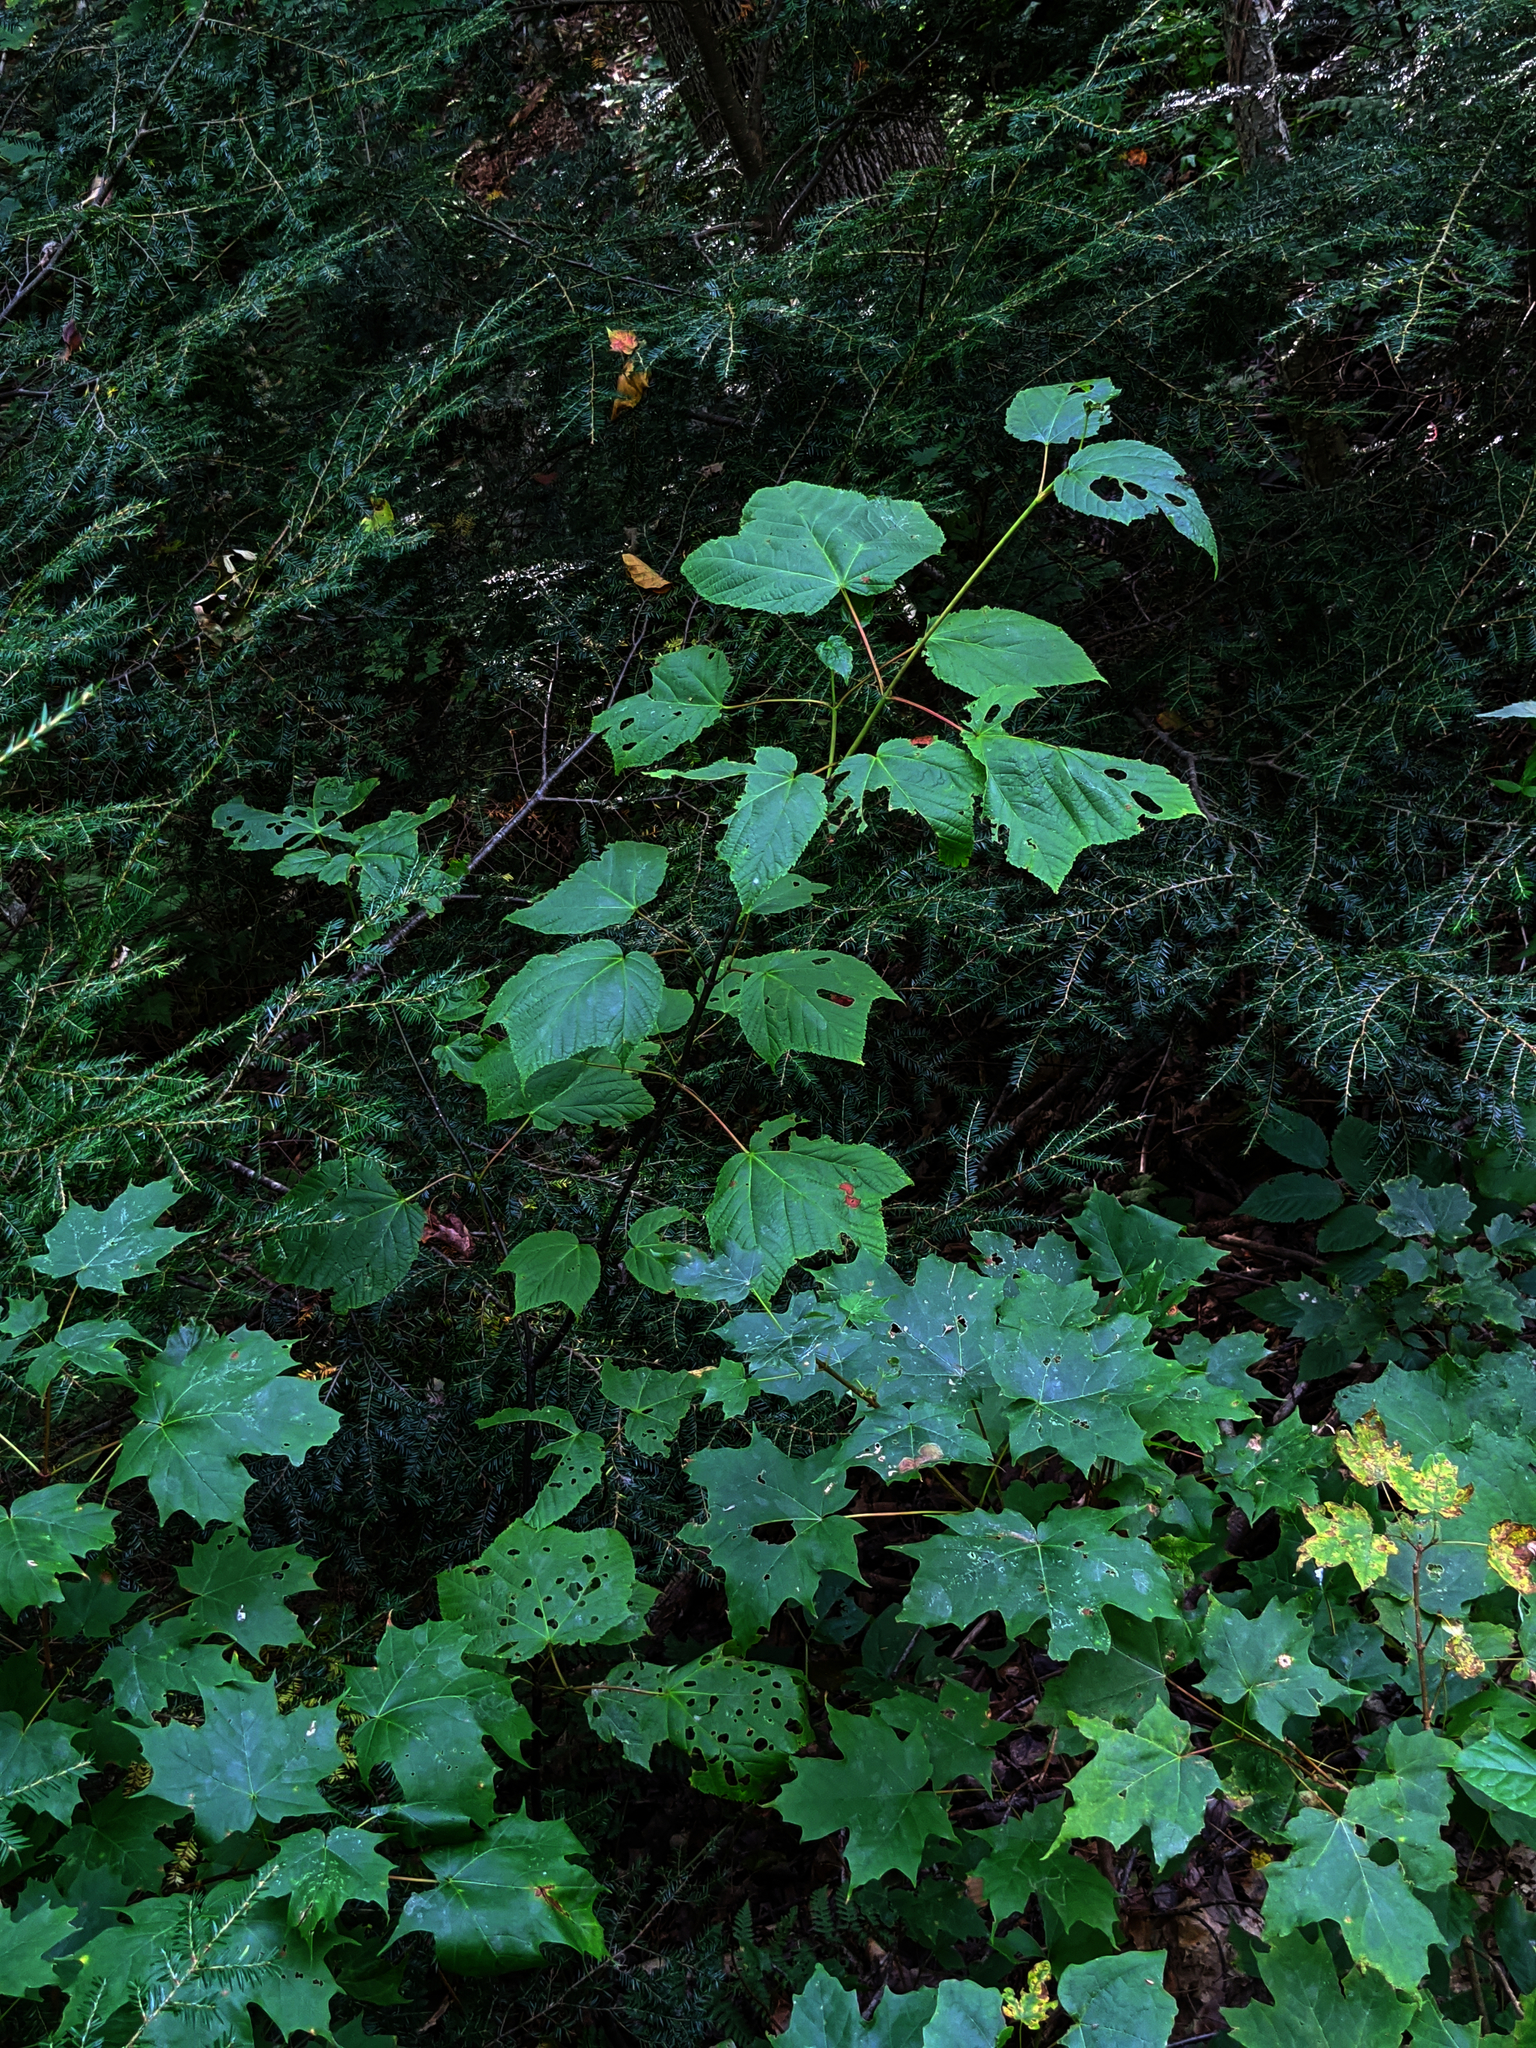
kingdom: Plantae
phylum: Tracheophyta
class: Pinopsida
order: Pinales
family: Pinaceae
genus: Tsuga
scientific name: Tsuga canadensis
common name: Eastern hemlock
